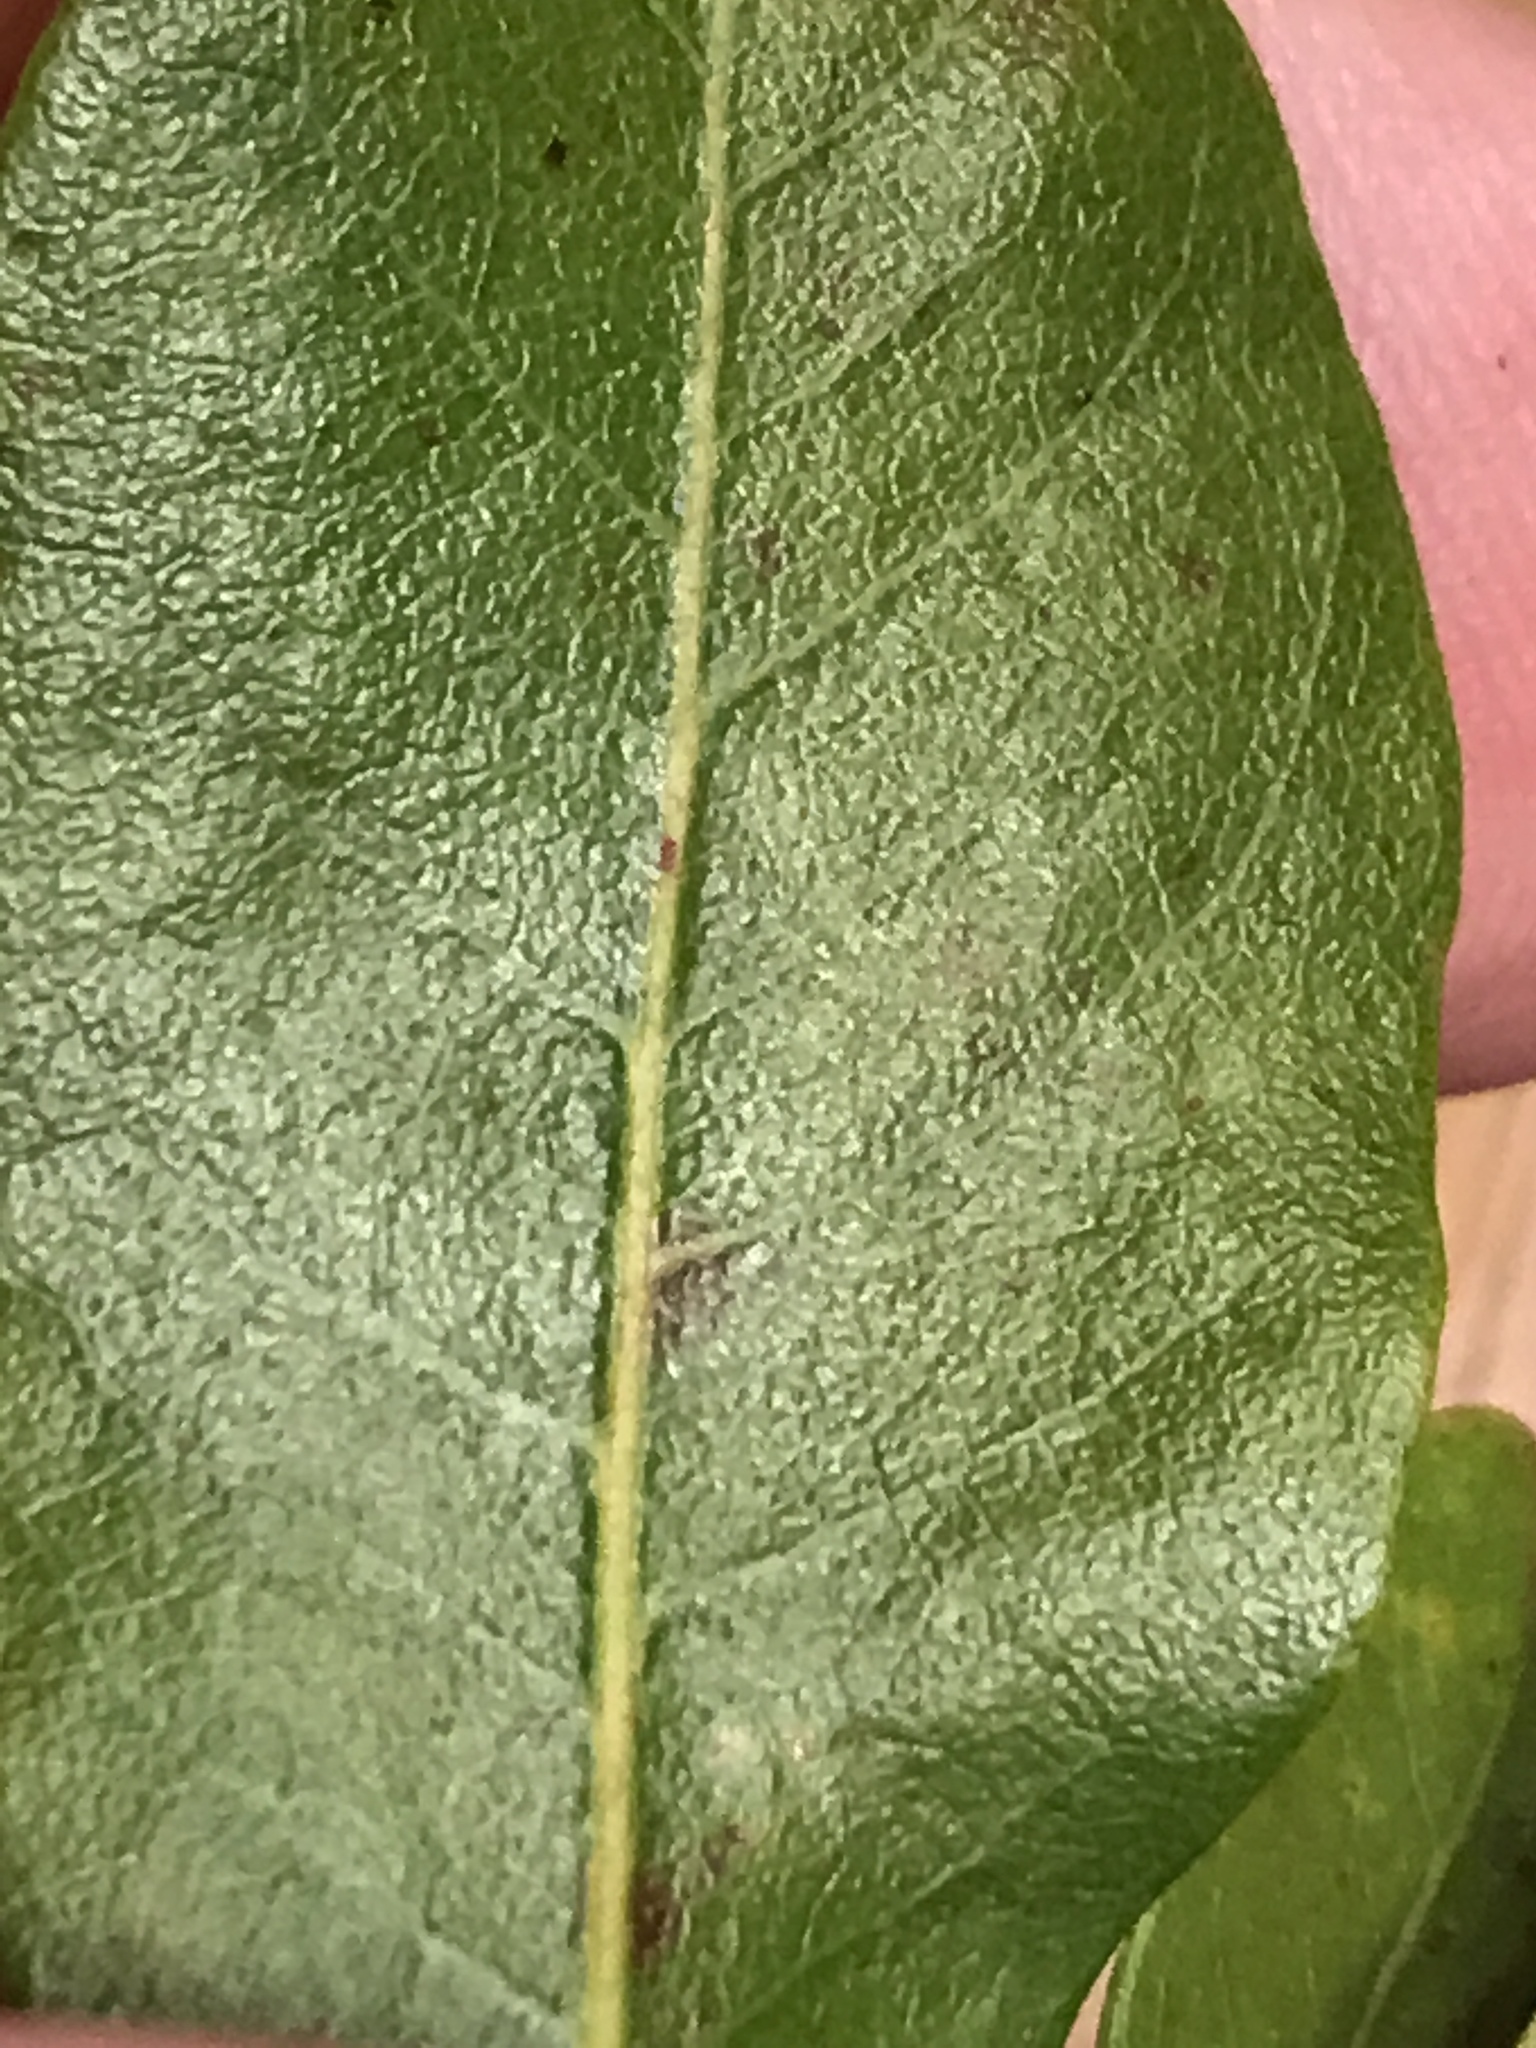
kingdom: Plantae
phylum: Tracheophyta
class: Magnoliopsida
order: Fagales
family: Myricaceae
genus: Morella
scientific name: Morella caroliniensis
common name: Evergreen bayberry
